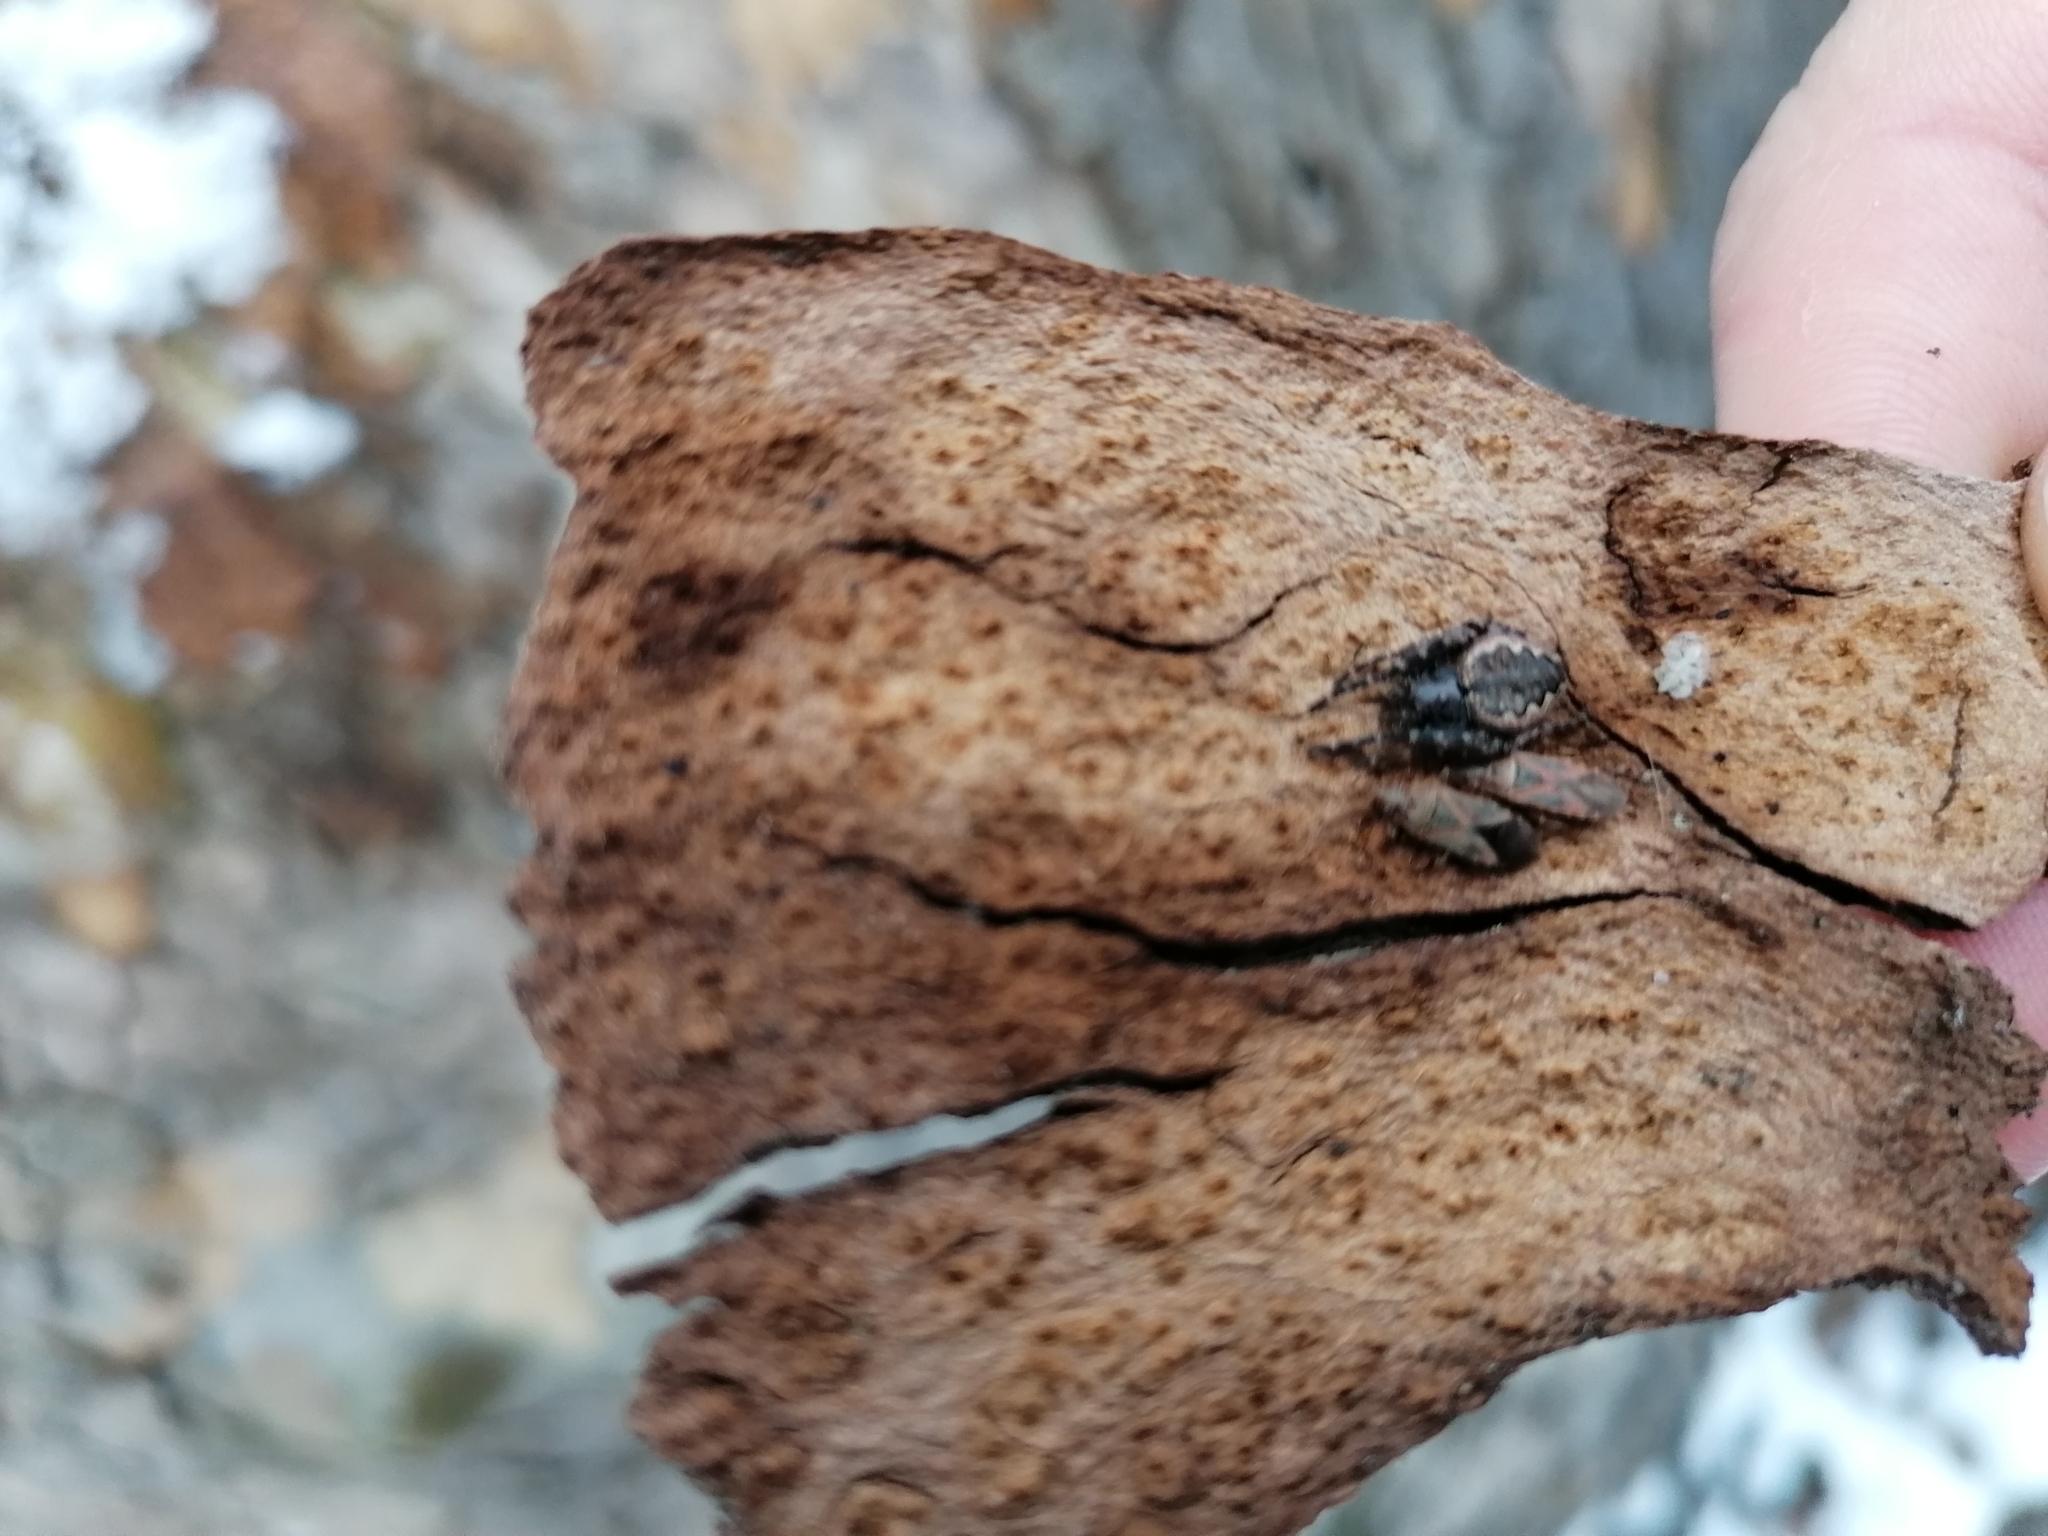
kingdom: Animalia
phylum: Arthropoda
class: Insecta
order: Hemiptera
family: Tingidae
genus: Corythucha
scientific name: Corythucha ciliata
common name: Sycamore lace bug
